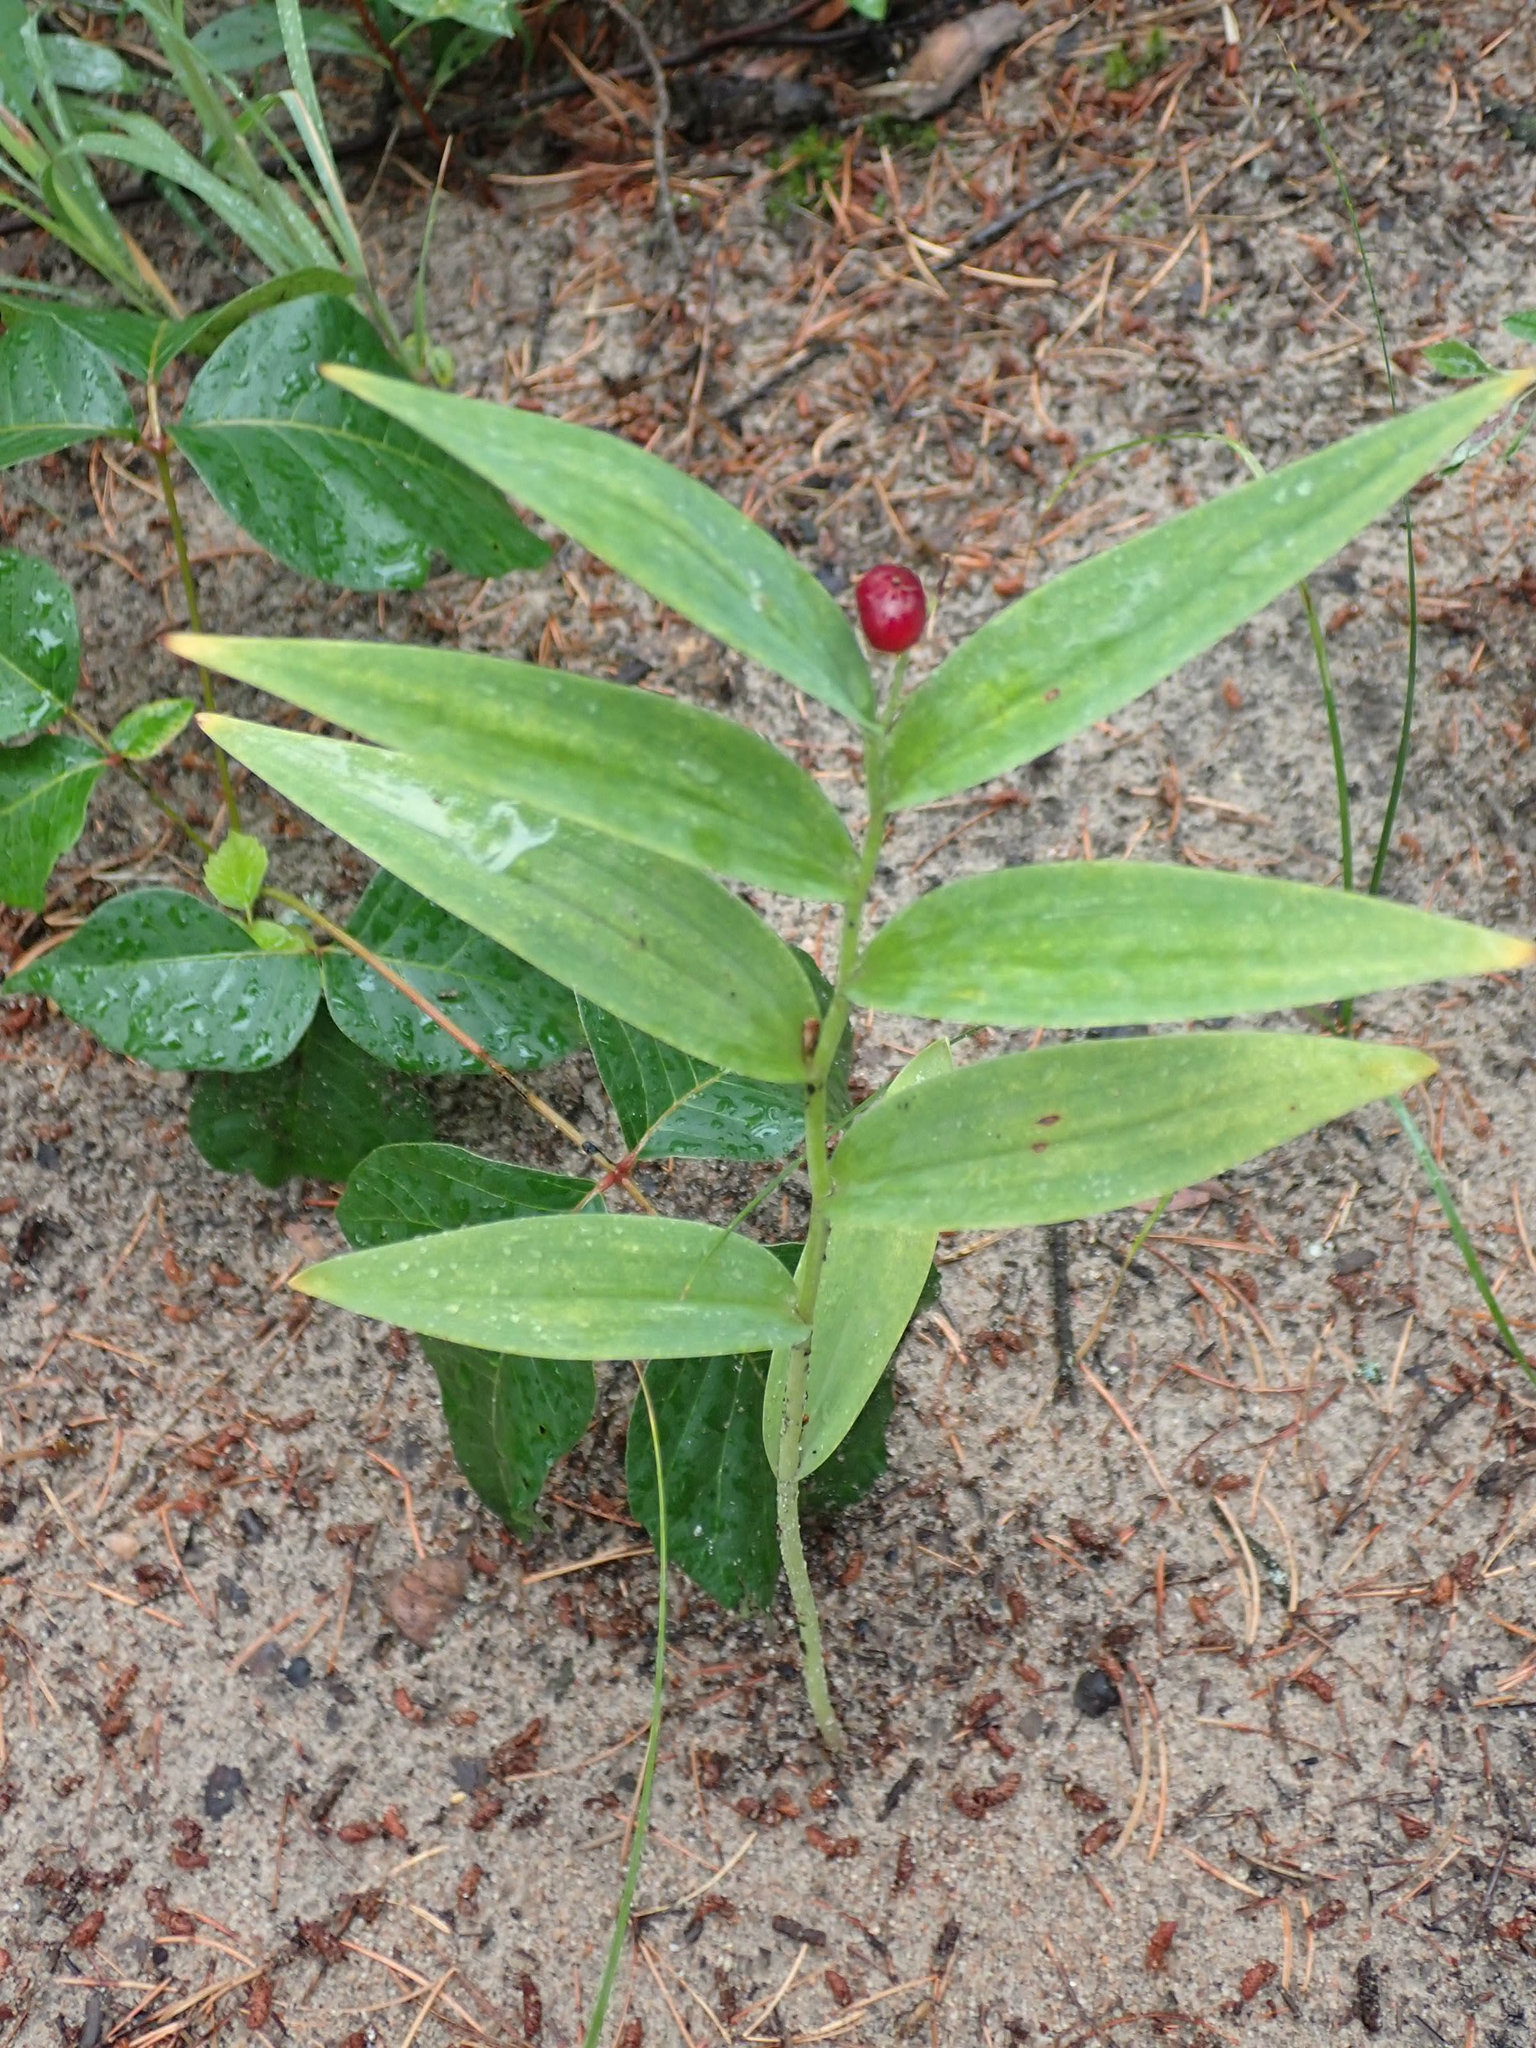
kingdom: Plantae
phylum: Tracheophyta
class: Liliopsida
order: Asparagales
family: Asparagaceae
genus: Maianthemum
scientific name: Maianthemum stellatum
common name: Little false solomon's seal
